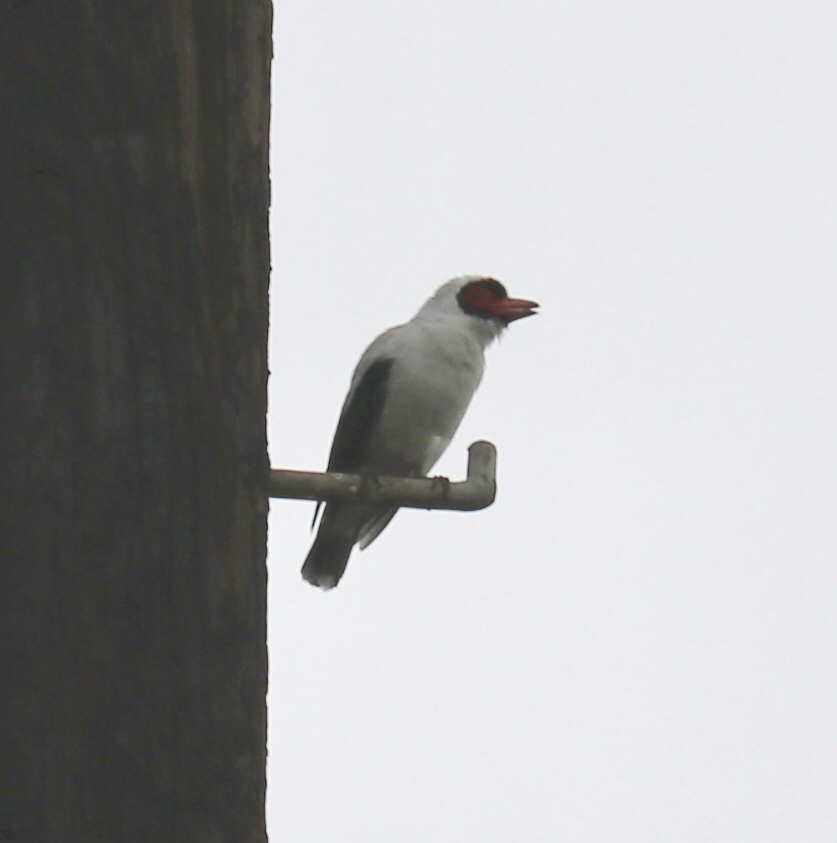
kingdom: Animalia
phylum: Chordata
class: Aves
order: Passeriformes
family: Cotingidae
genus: Tityra
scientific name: Tityra semifasciata
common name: Masked tityra
